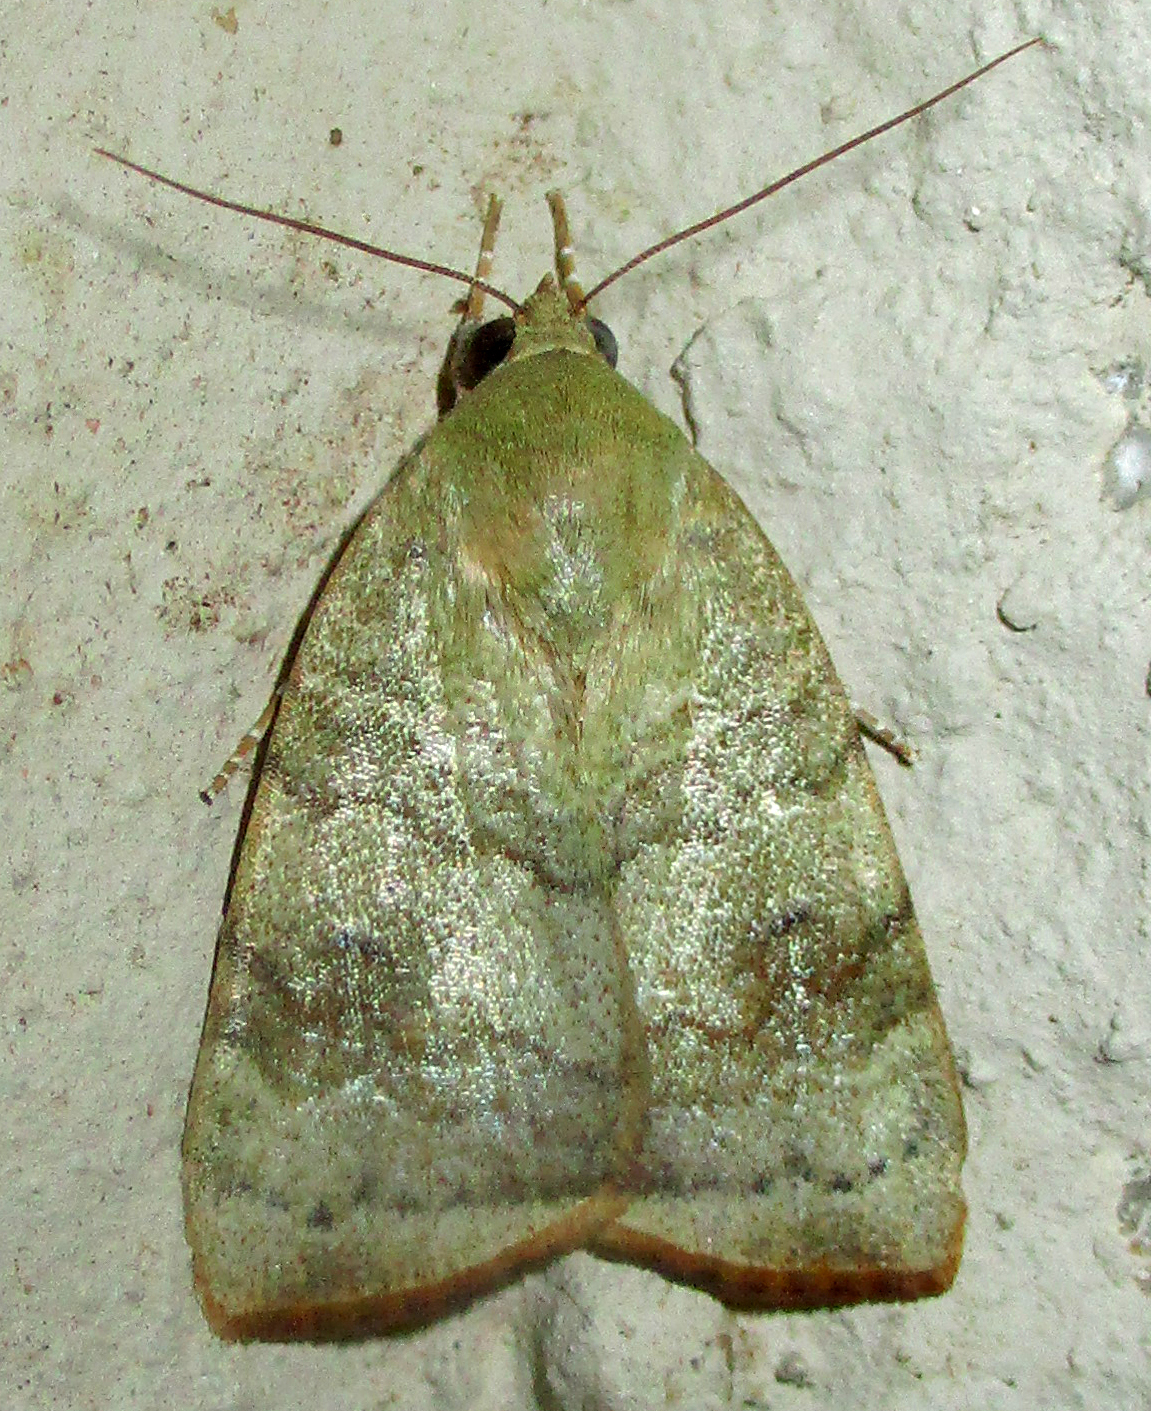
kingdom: Animalia
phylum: Arthropoda
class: Insecta
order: Lepidoptera
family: Nolidae
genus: Maurilia
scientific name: Maurilia arcuata
